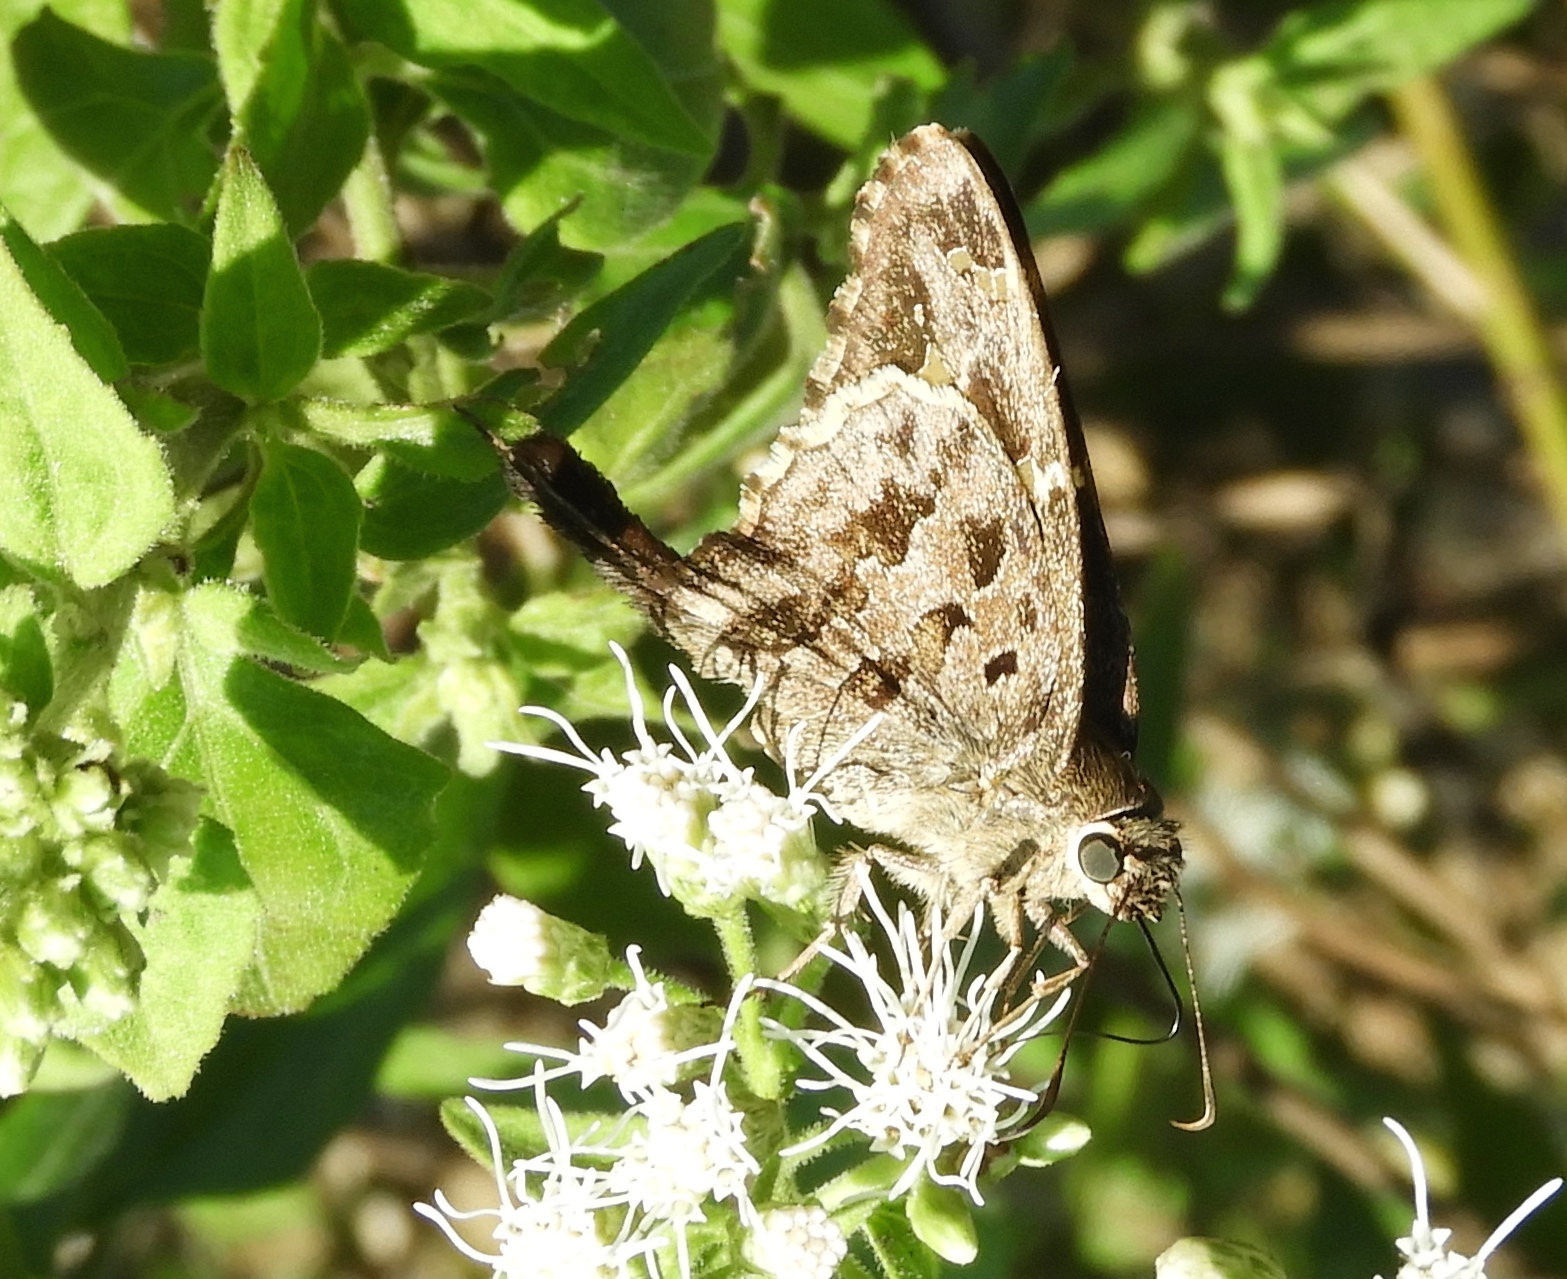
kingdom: Animalia
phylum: Arthropoda
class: Insecta
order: Lepidoptera
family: Hesperiidae
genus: Thorybes
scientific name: Thorybes
